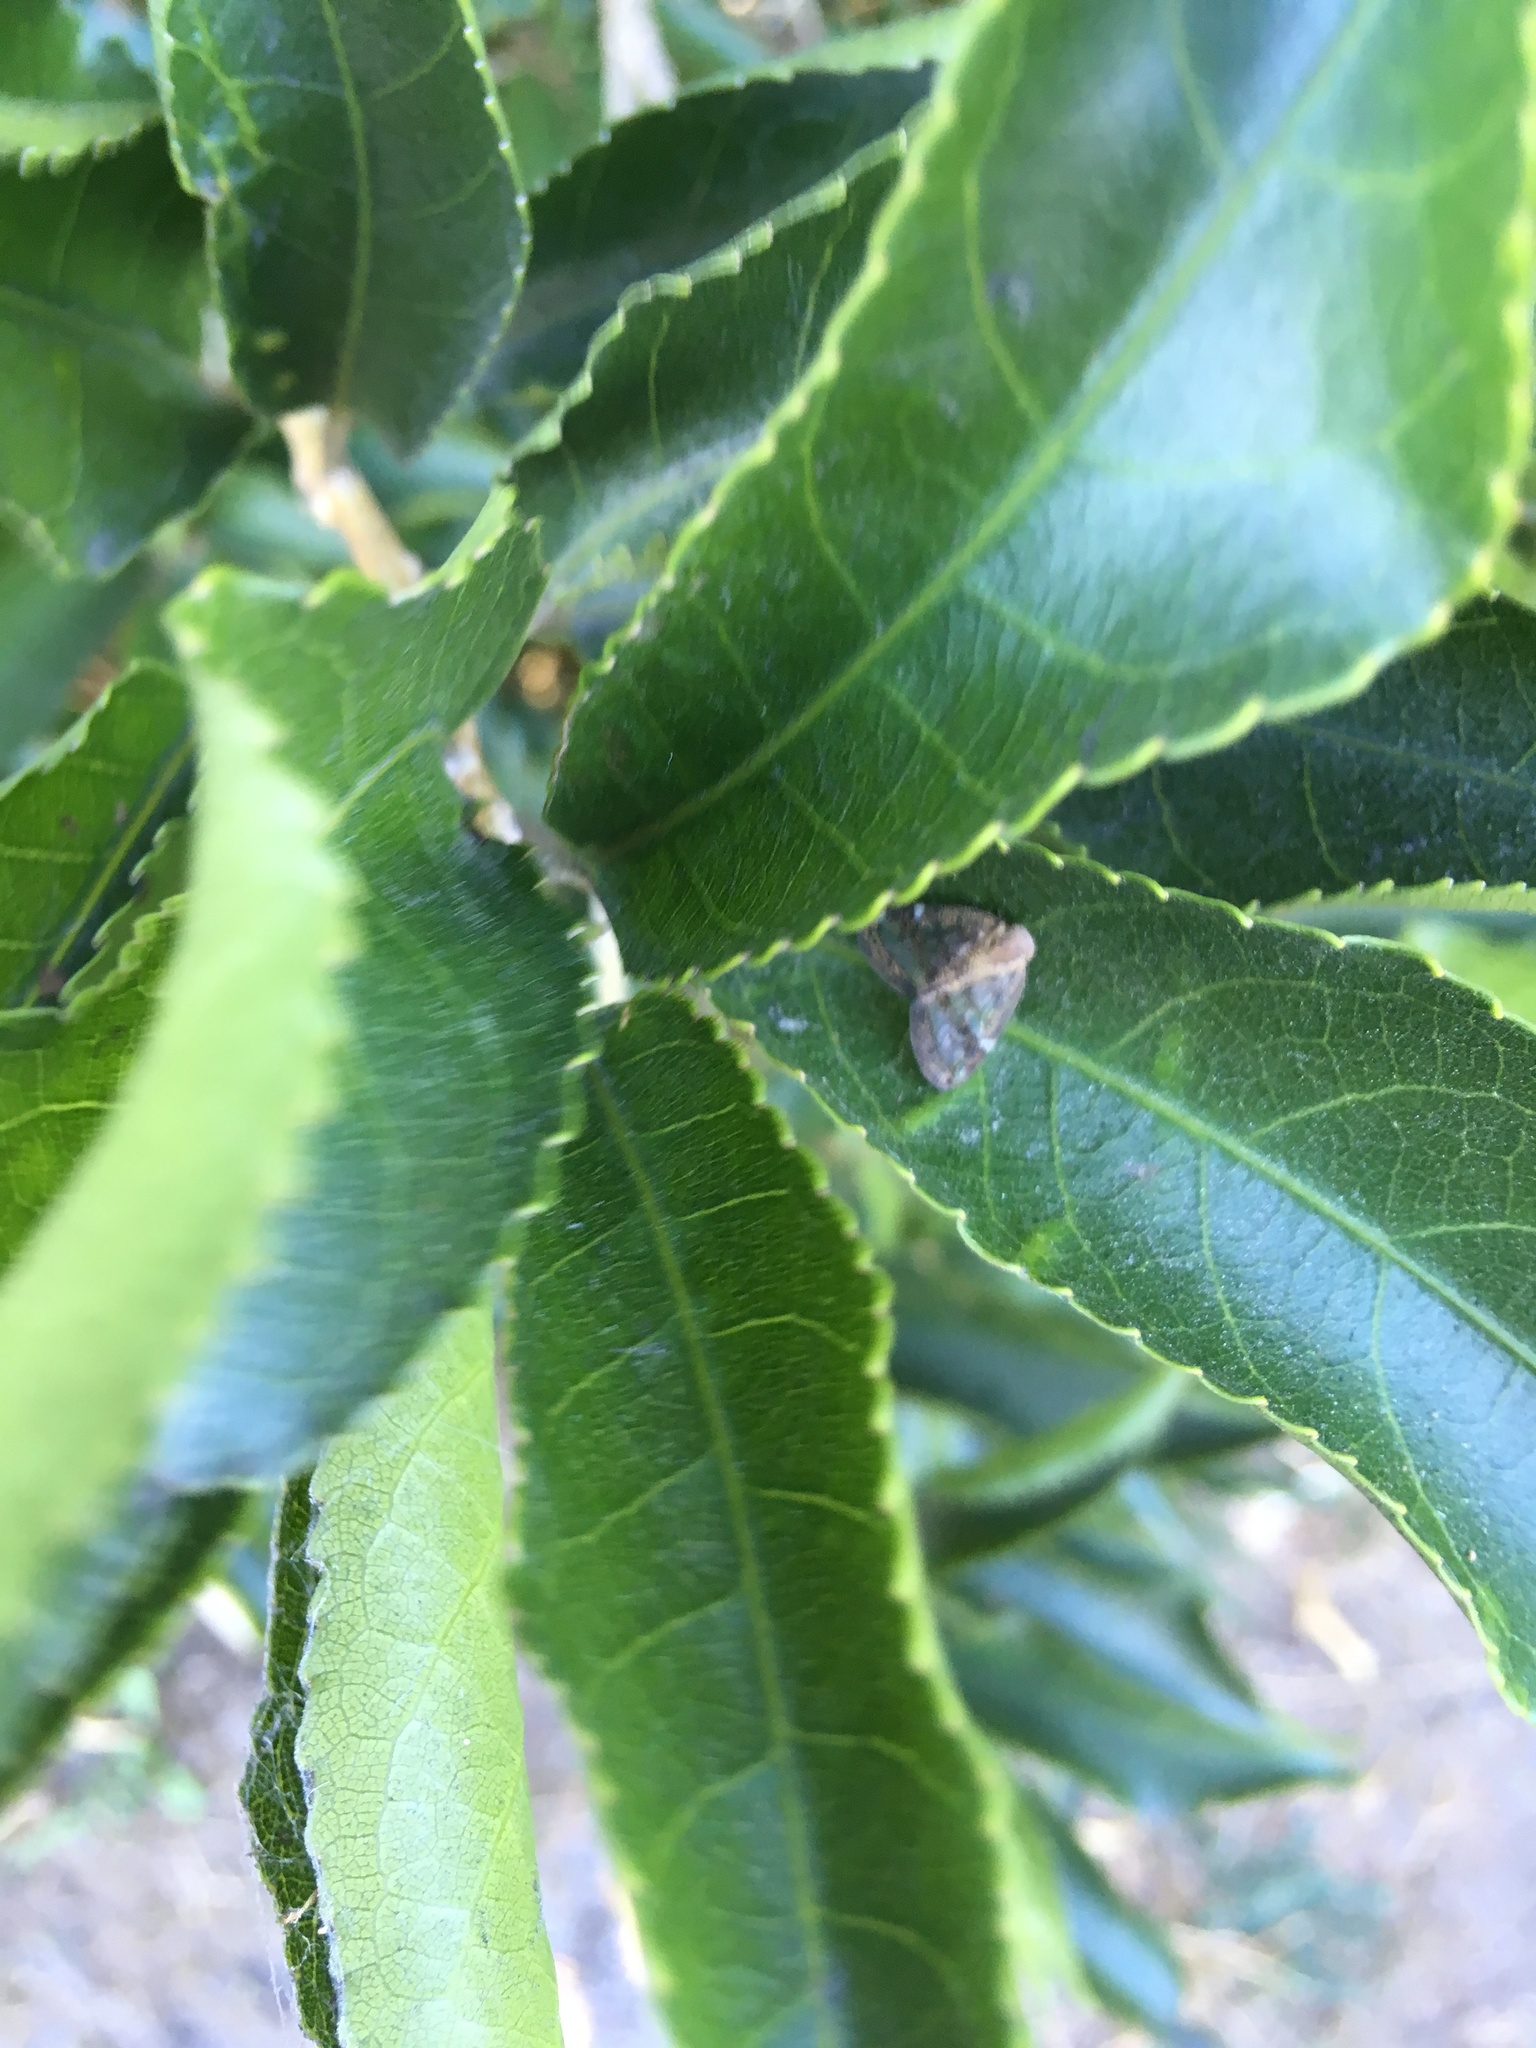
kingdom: Animalia
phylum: Arthropoda
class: Insecta
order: Hemiptera
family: Ricaniidae
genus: Scolypopa
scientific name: Scolypopa australis
